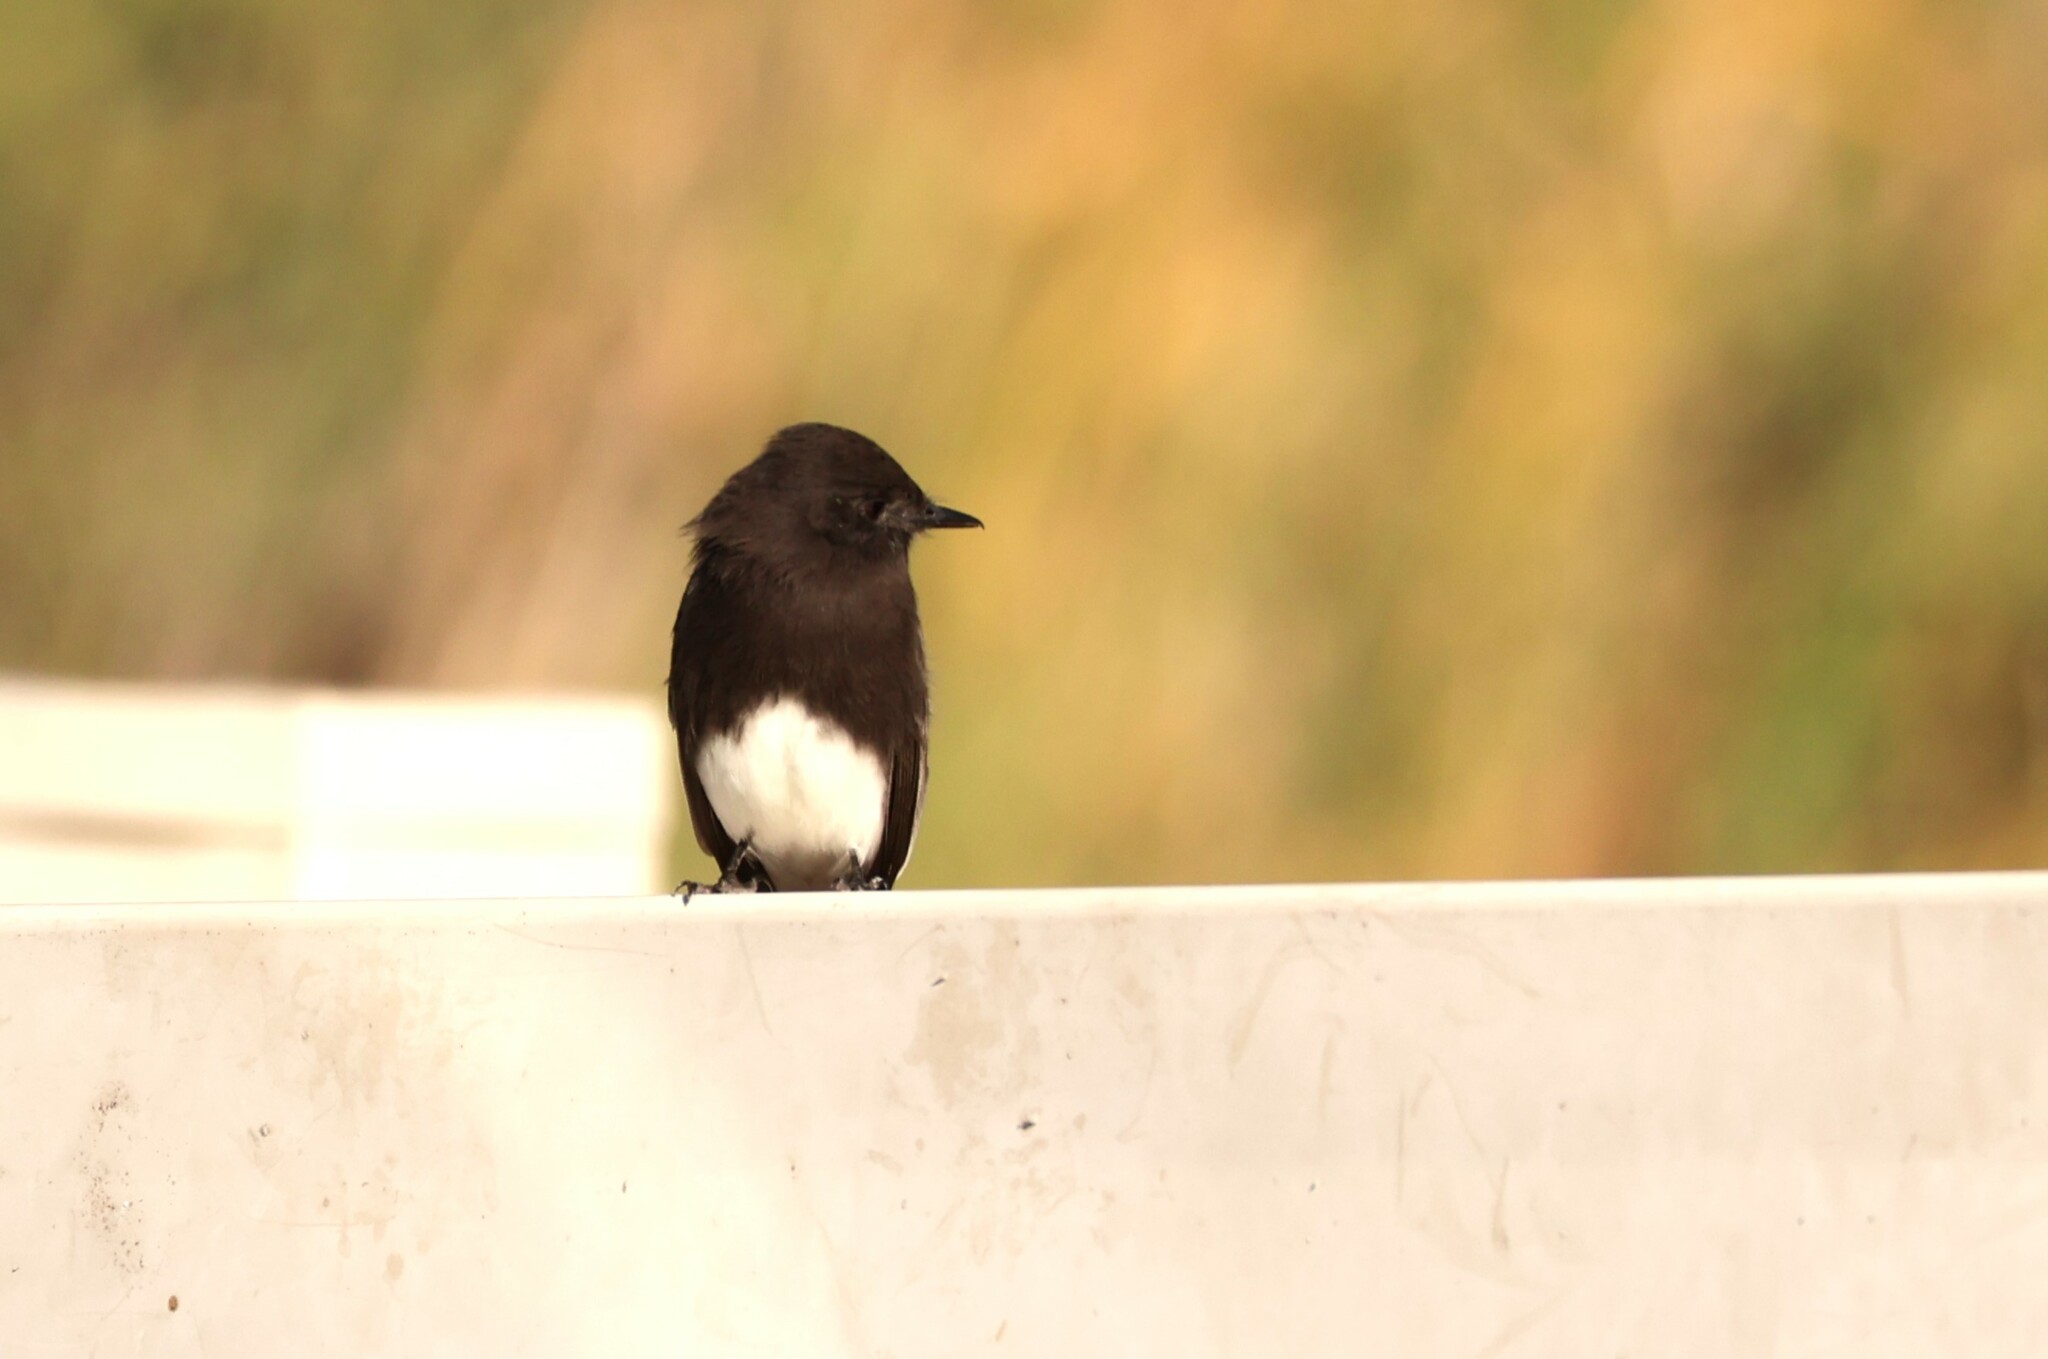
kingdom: Animalia
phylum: Chordata
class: Aves
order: Passeriformes
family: Tyrannidae
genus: Sayornis
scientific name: Sayornis nigricans
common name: Black phoebe
